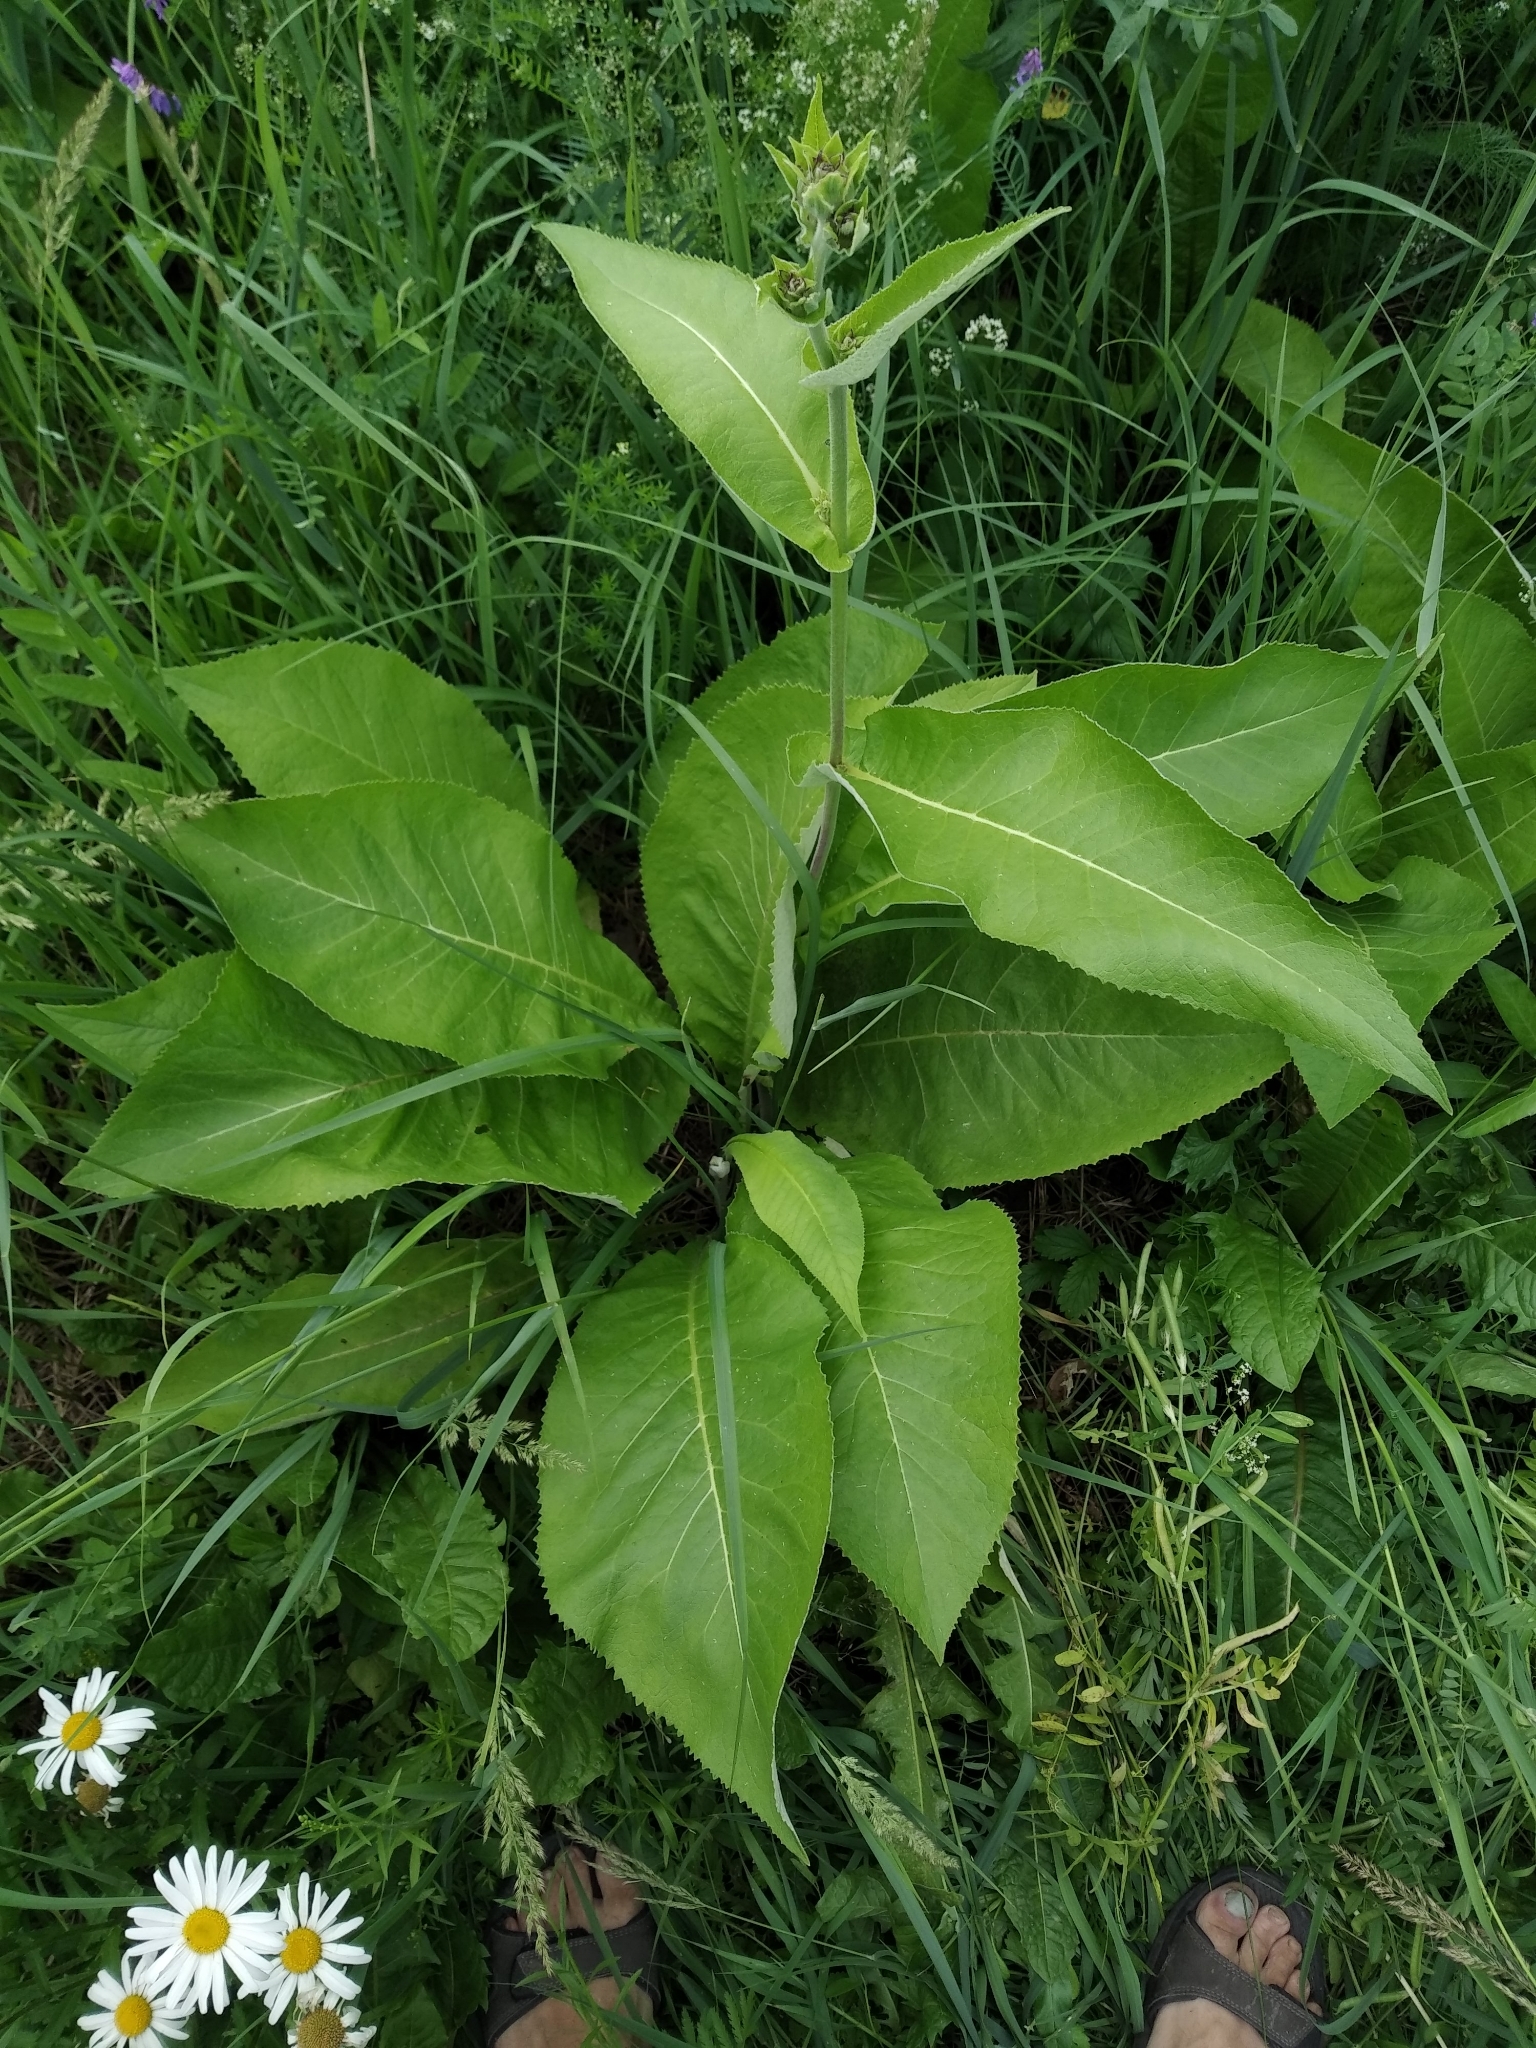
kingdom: Plantae
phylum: Tracheophyta
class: Magnoliopsida
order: Asterales
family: Asteraceae
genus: Inula
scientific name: Inula helenium
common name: Elecampane
